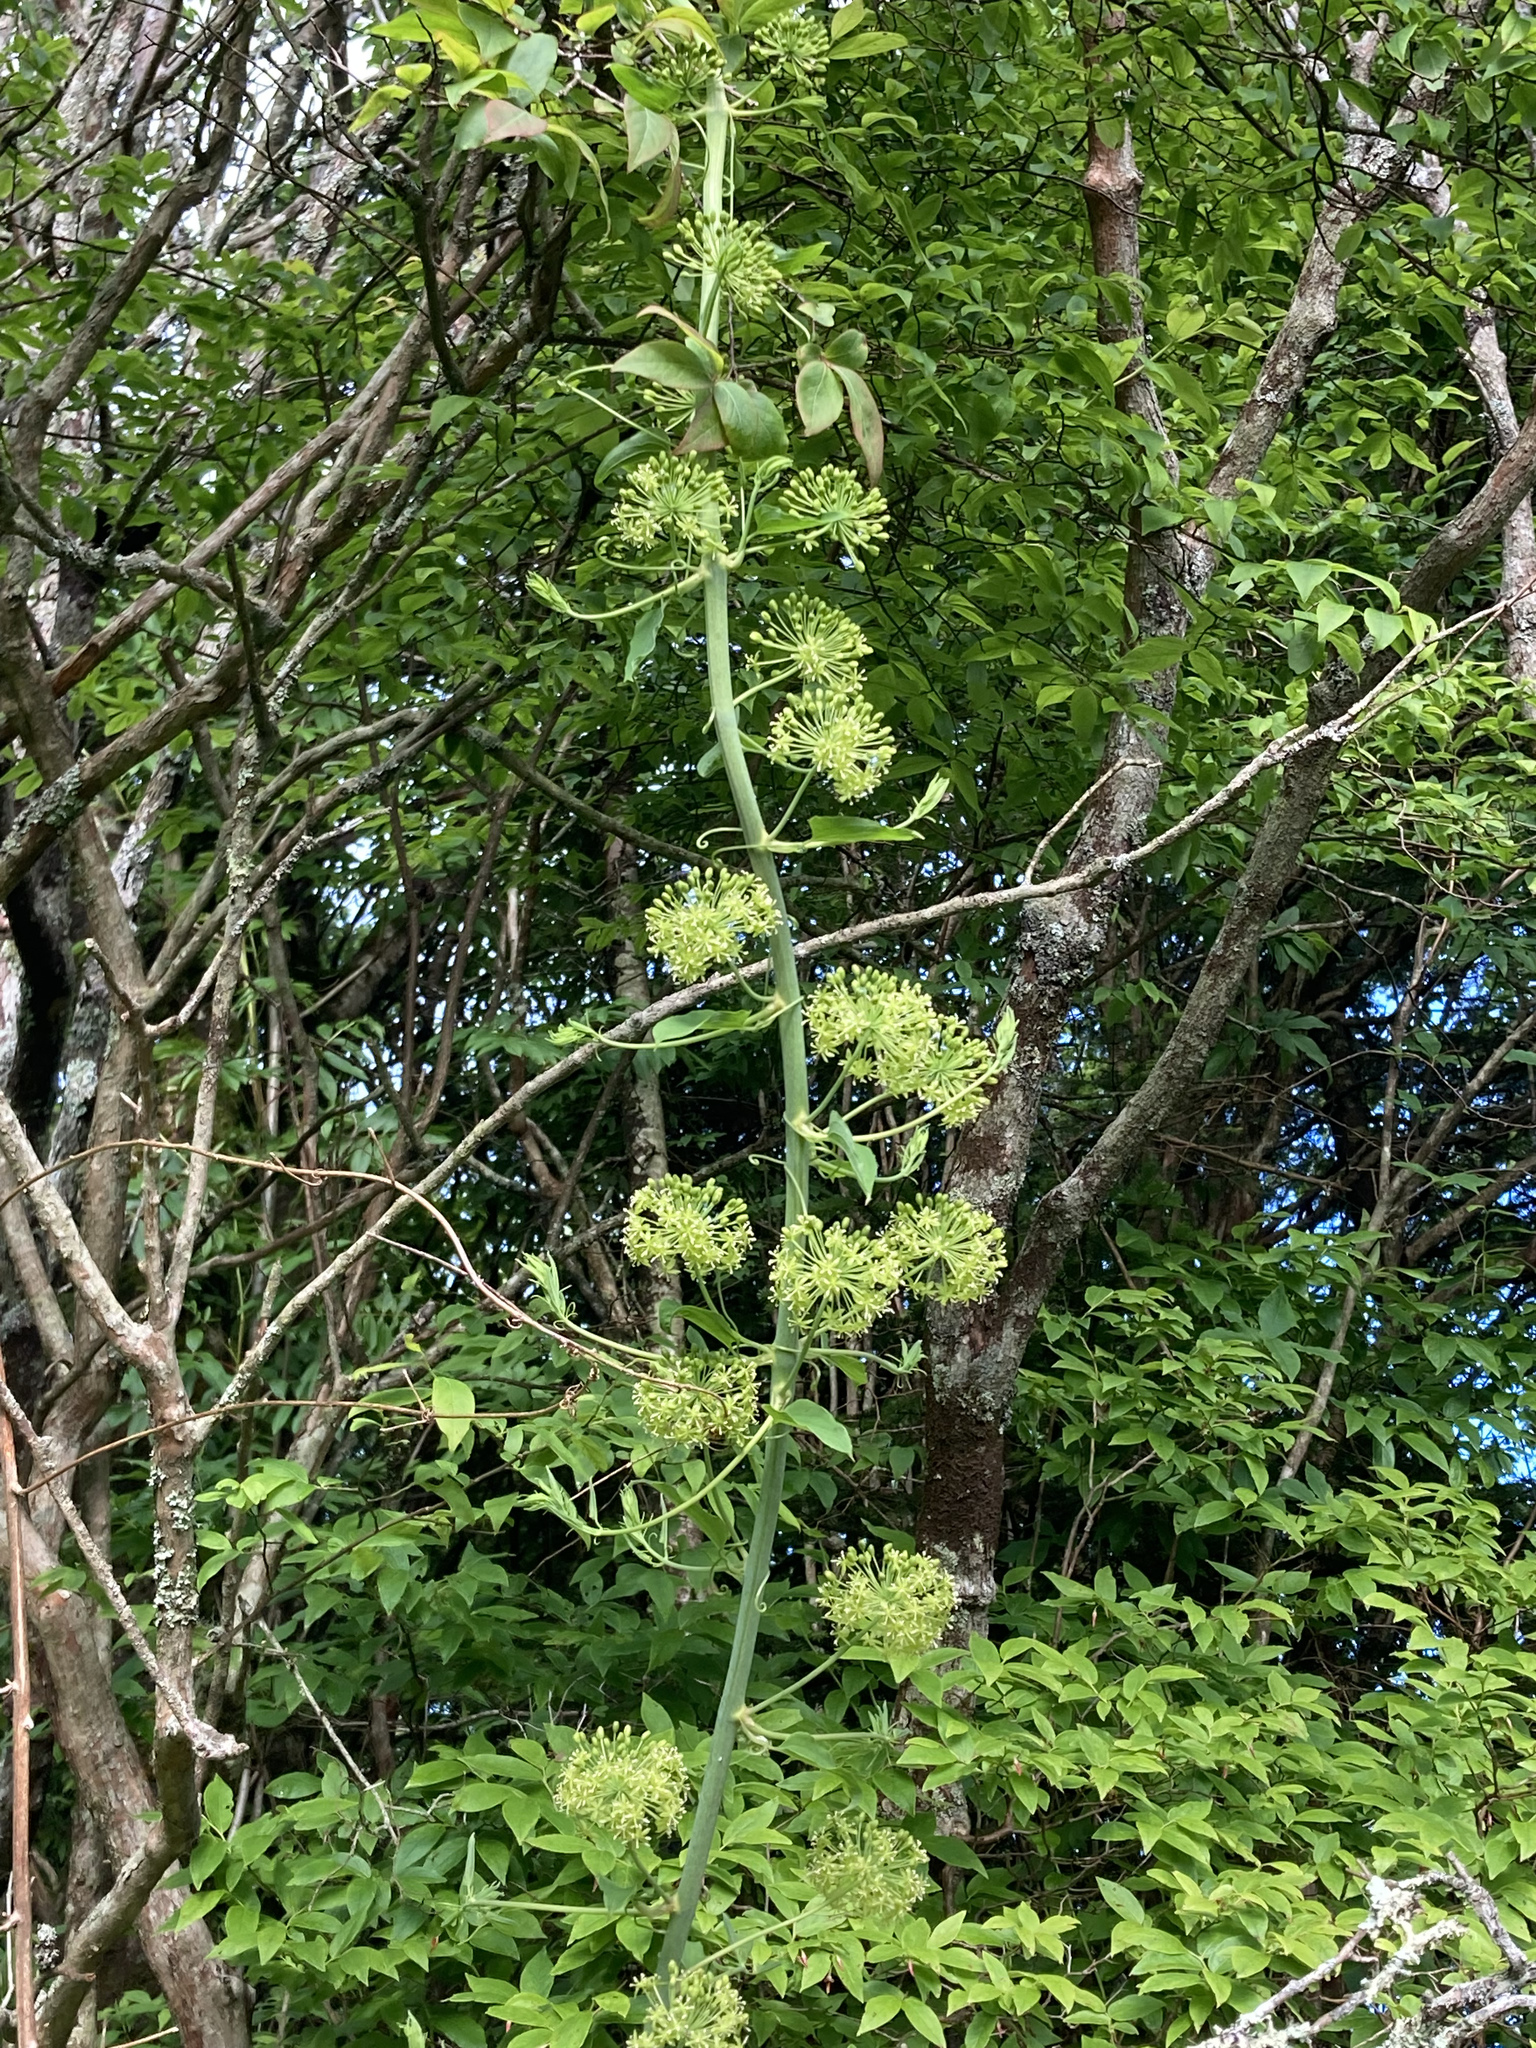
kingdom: Plantae
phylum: Tracheophyta
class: Liliopsida
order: Liliales
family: Smilacaceae
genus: Smilax
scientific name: Smilax herbacea
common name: Jacob's-ladder
